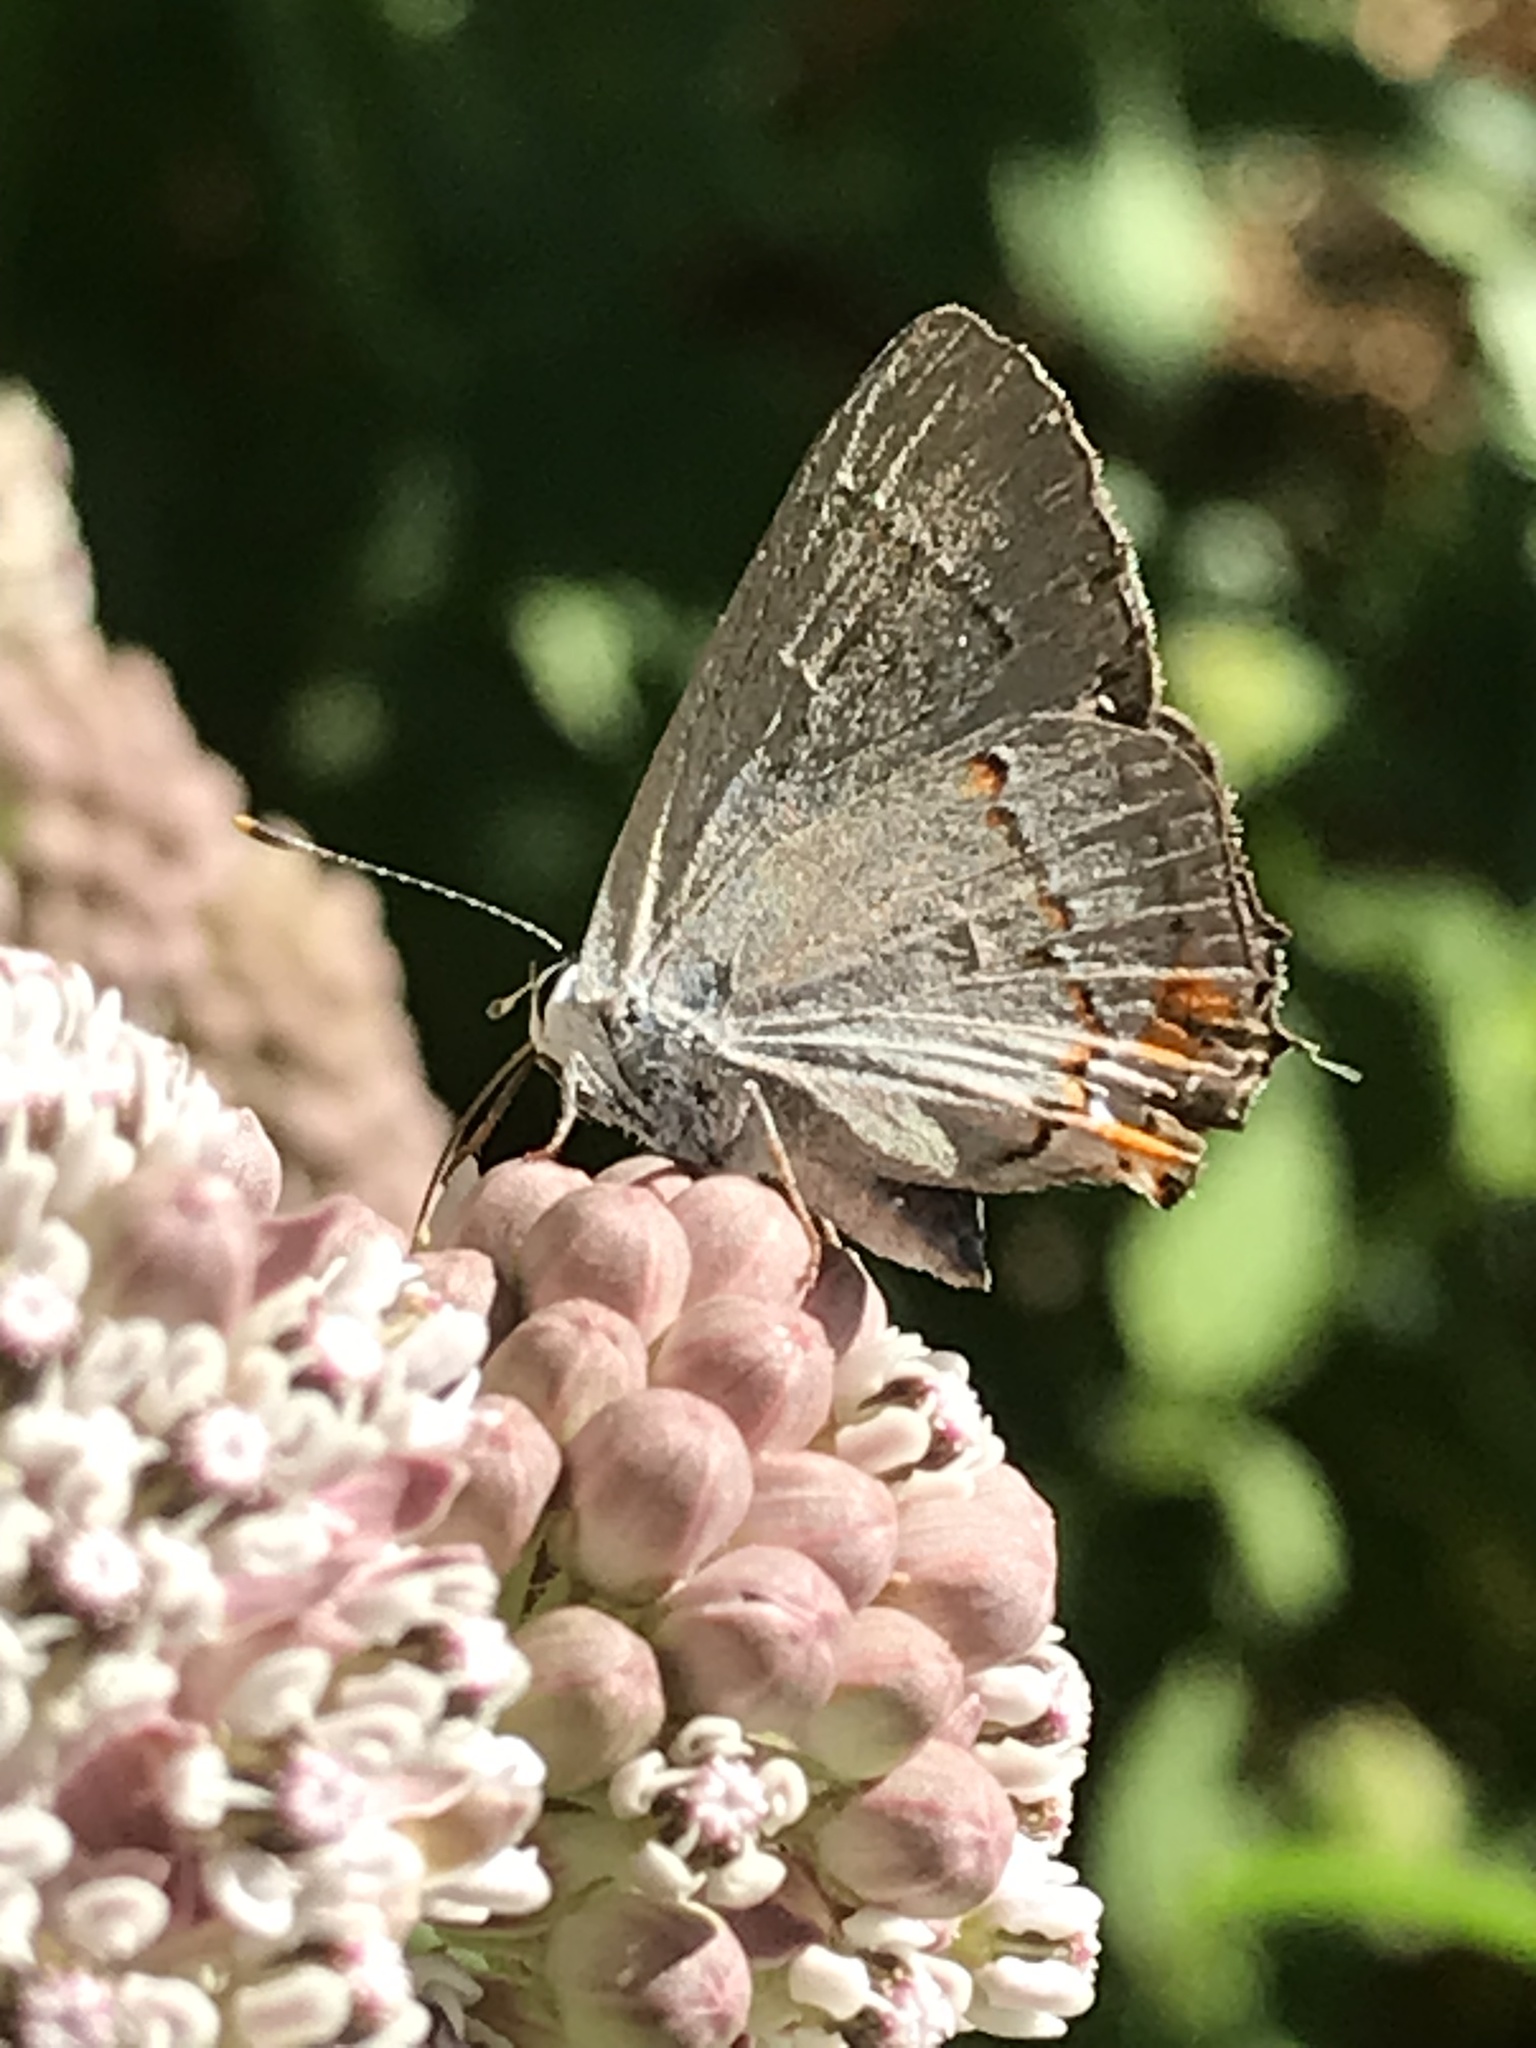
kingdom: Animalia
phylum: Arthropoda
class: Insecta
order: Lepidoptera
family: Lycaenidae
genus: Strymon
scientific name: Strymon melinus
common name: Gray hairstreak
